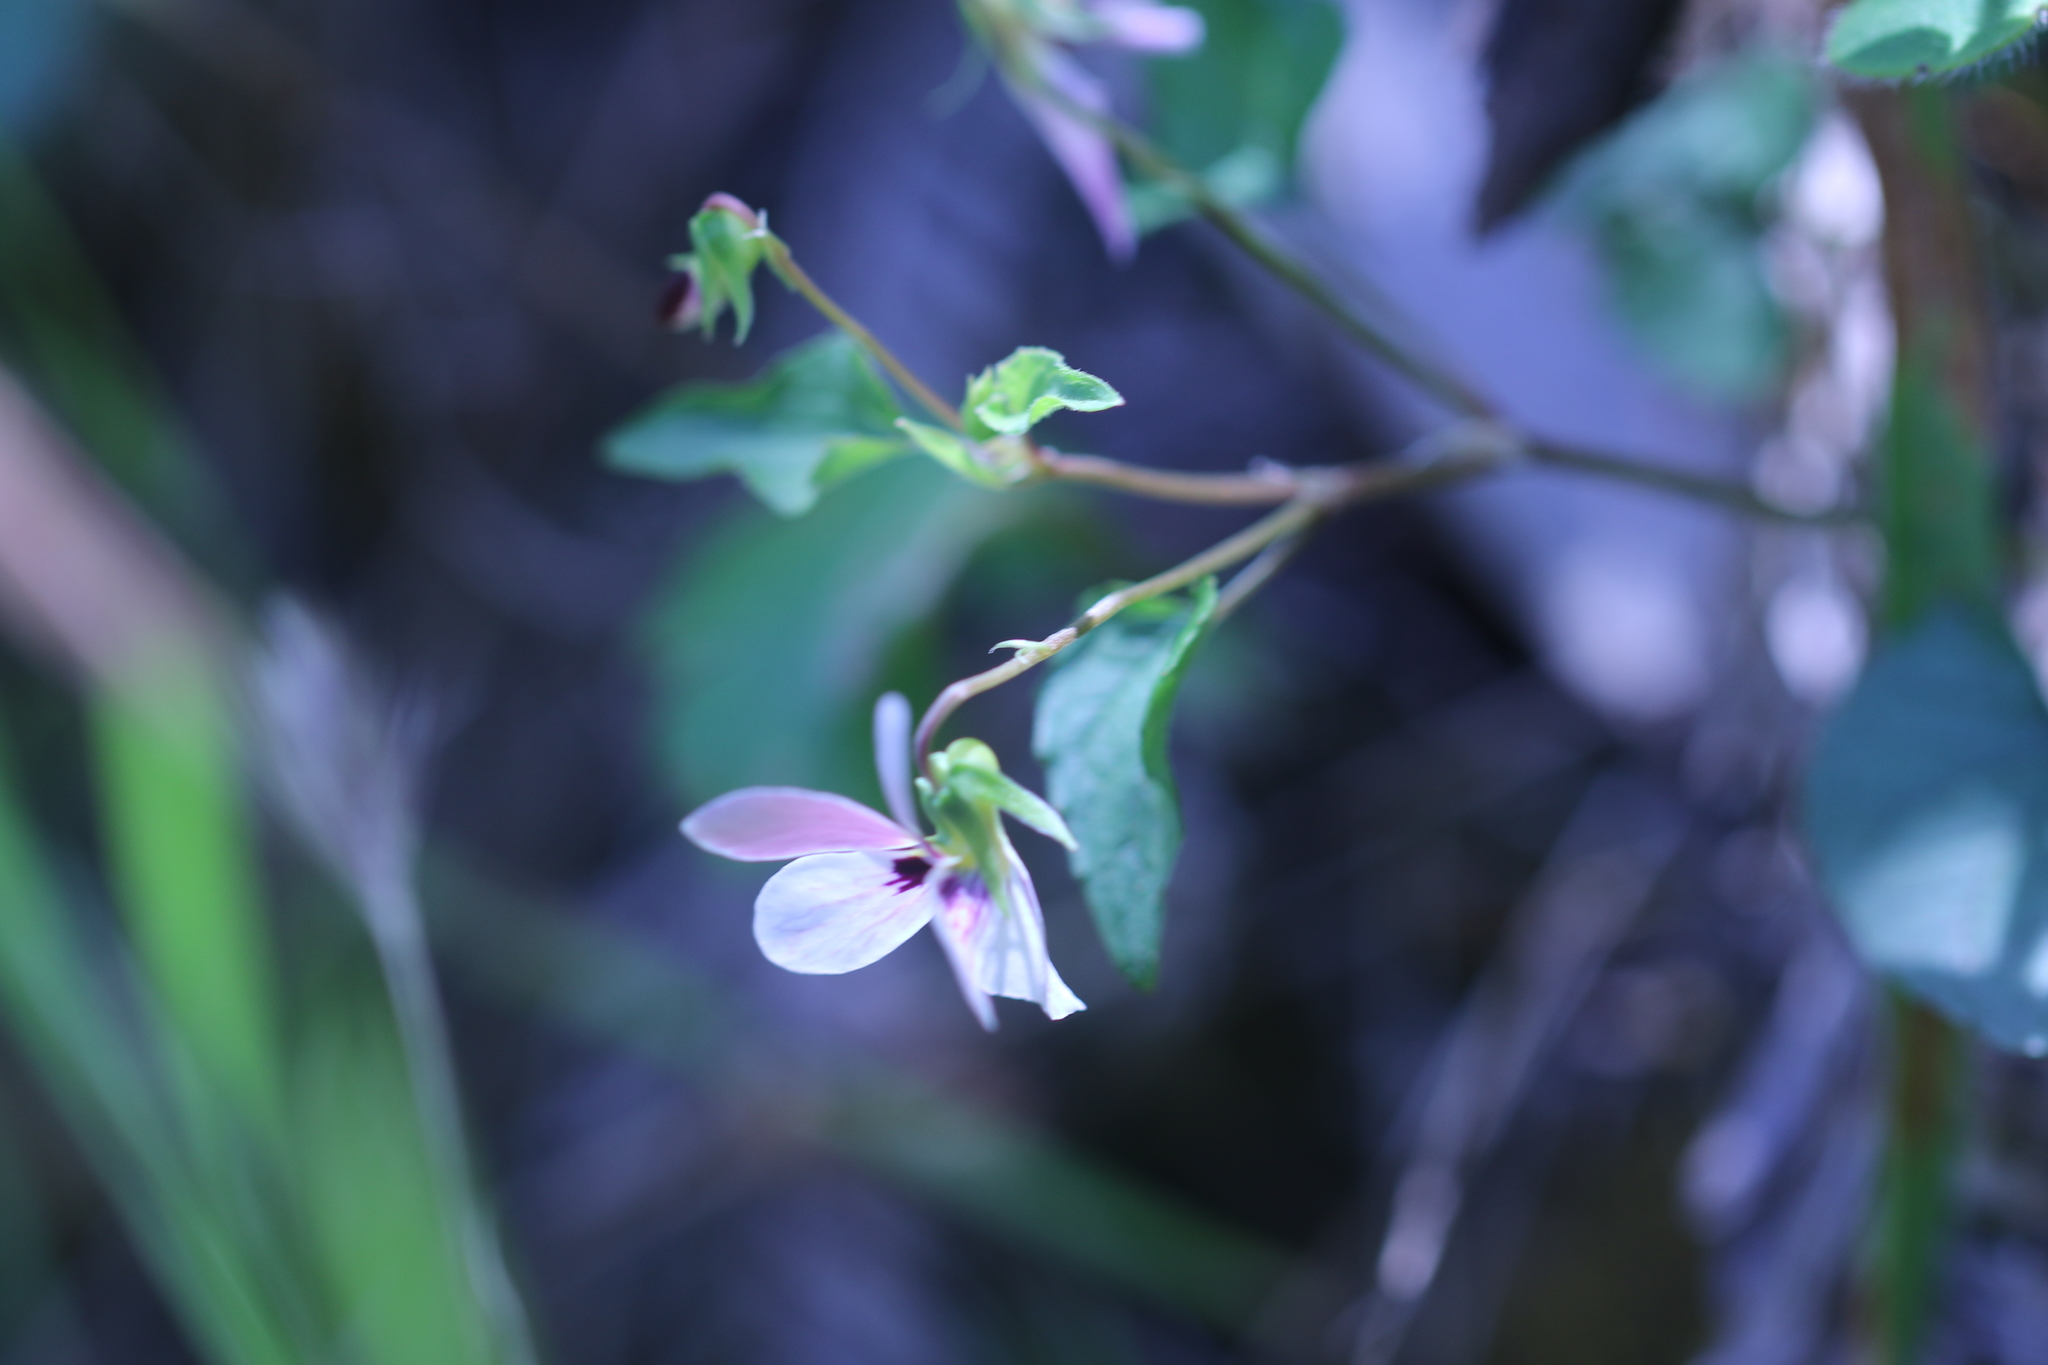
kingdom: Plantae
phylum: Tracheophyta
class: Magnoliopsida
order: Malpighiales
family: Violaceae
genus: Viola
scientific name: Viola ocellata
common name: Western heart's ease
